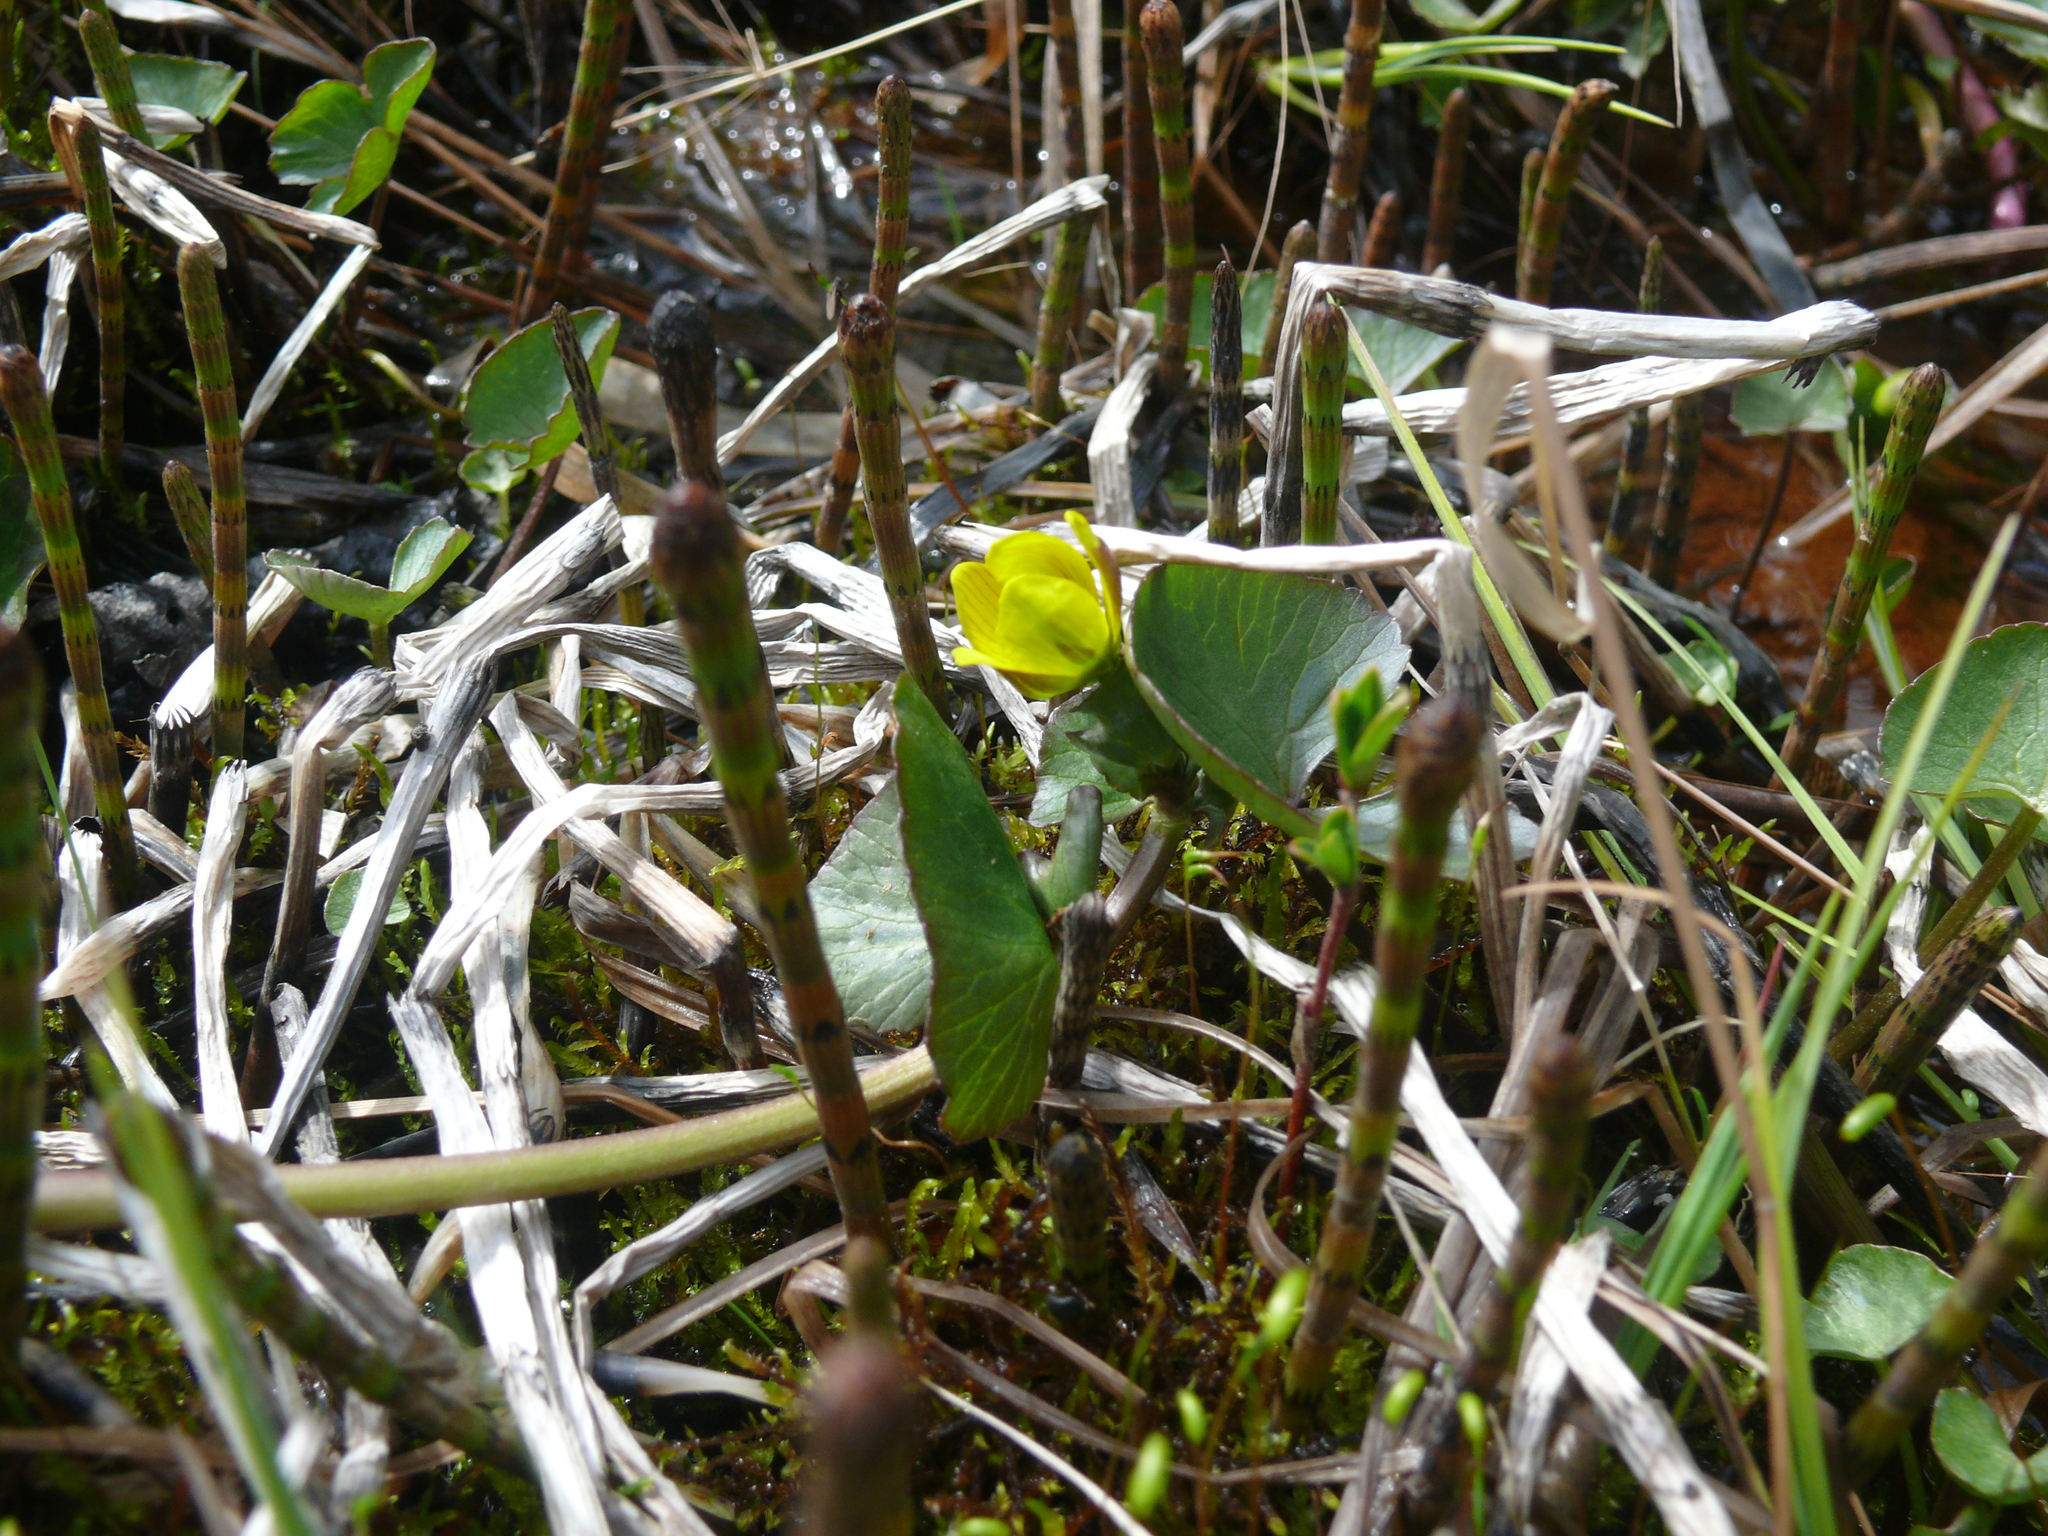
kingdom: Plantae
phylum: Tracheophyta
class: Magnoliopsida
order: Ranunculales
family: Ranunculaceae
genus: Caltha
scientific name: Caltha palustris
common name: Marsh marigold
